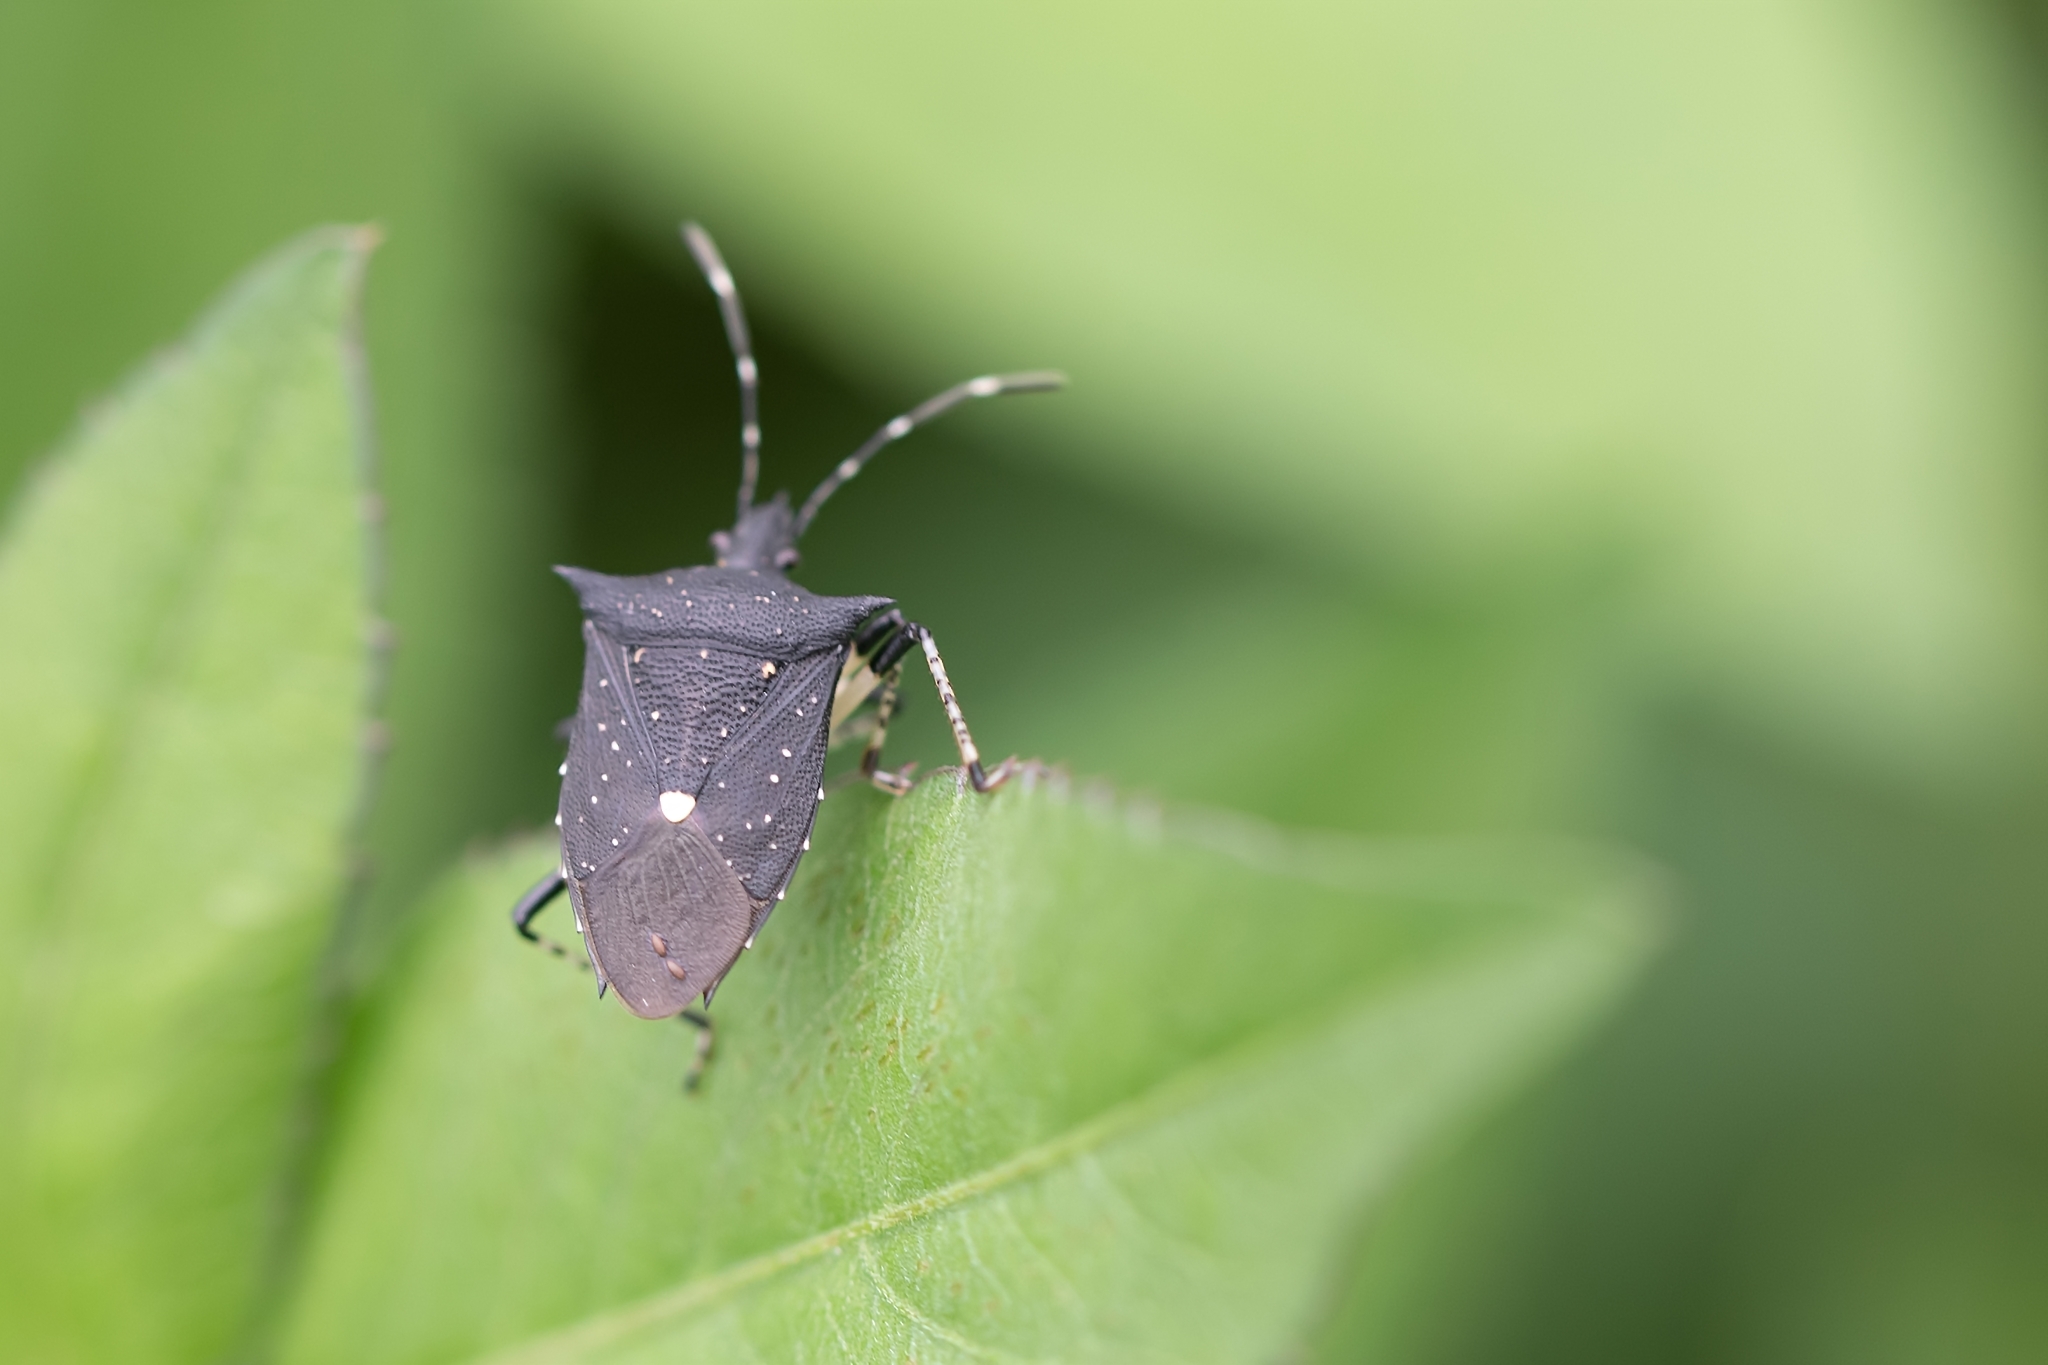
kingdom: Animalia
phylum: Arthropoda
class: Insecta
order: Hemiptera
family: Pentatomidae
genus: Proxys
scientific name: Proxys punctulatus
